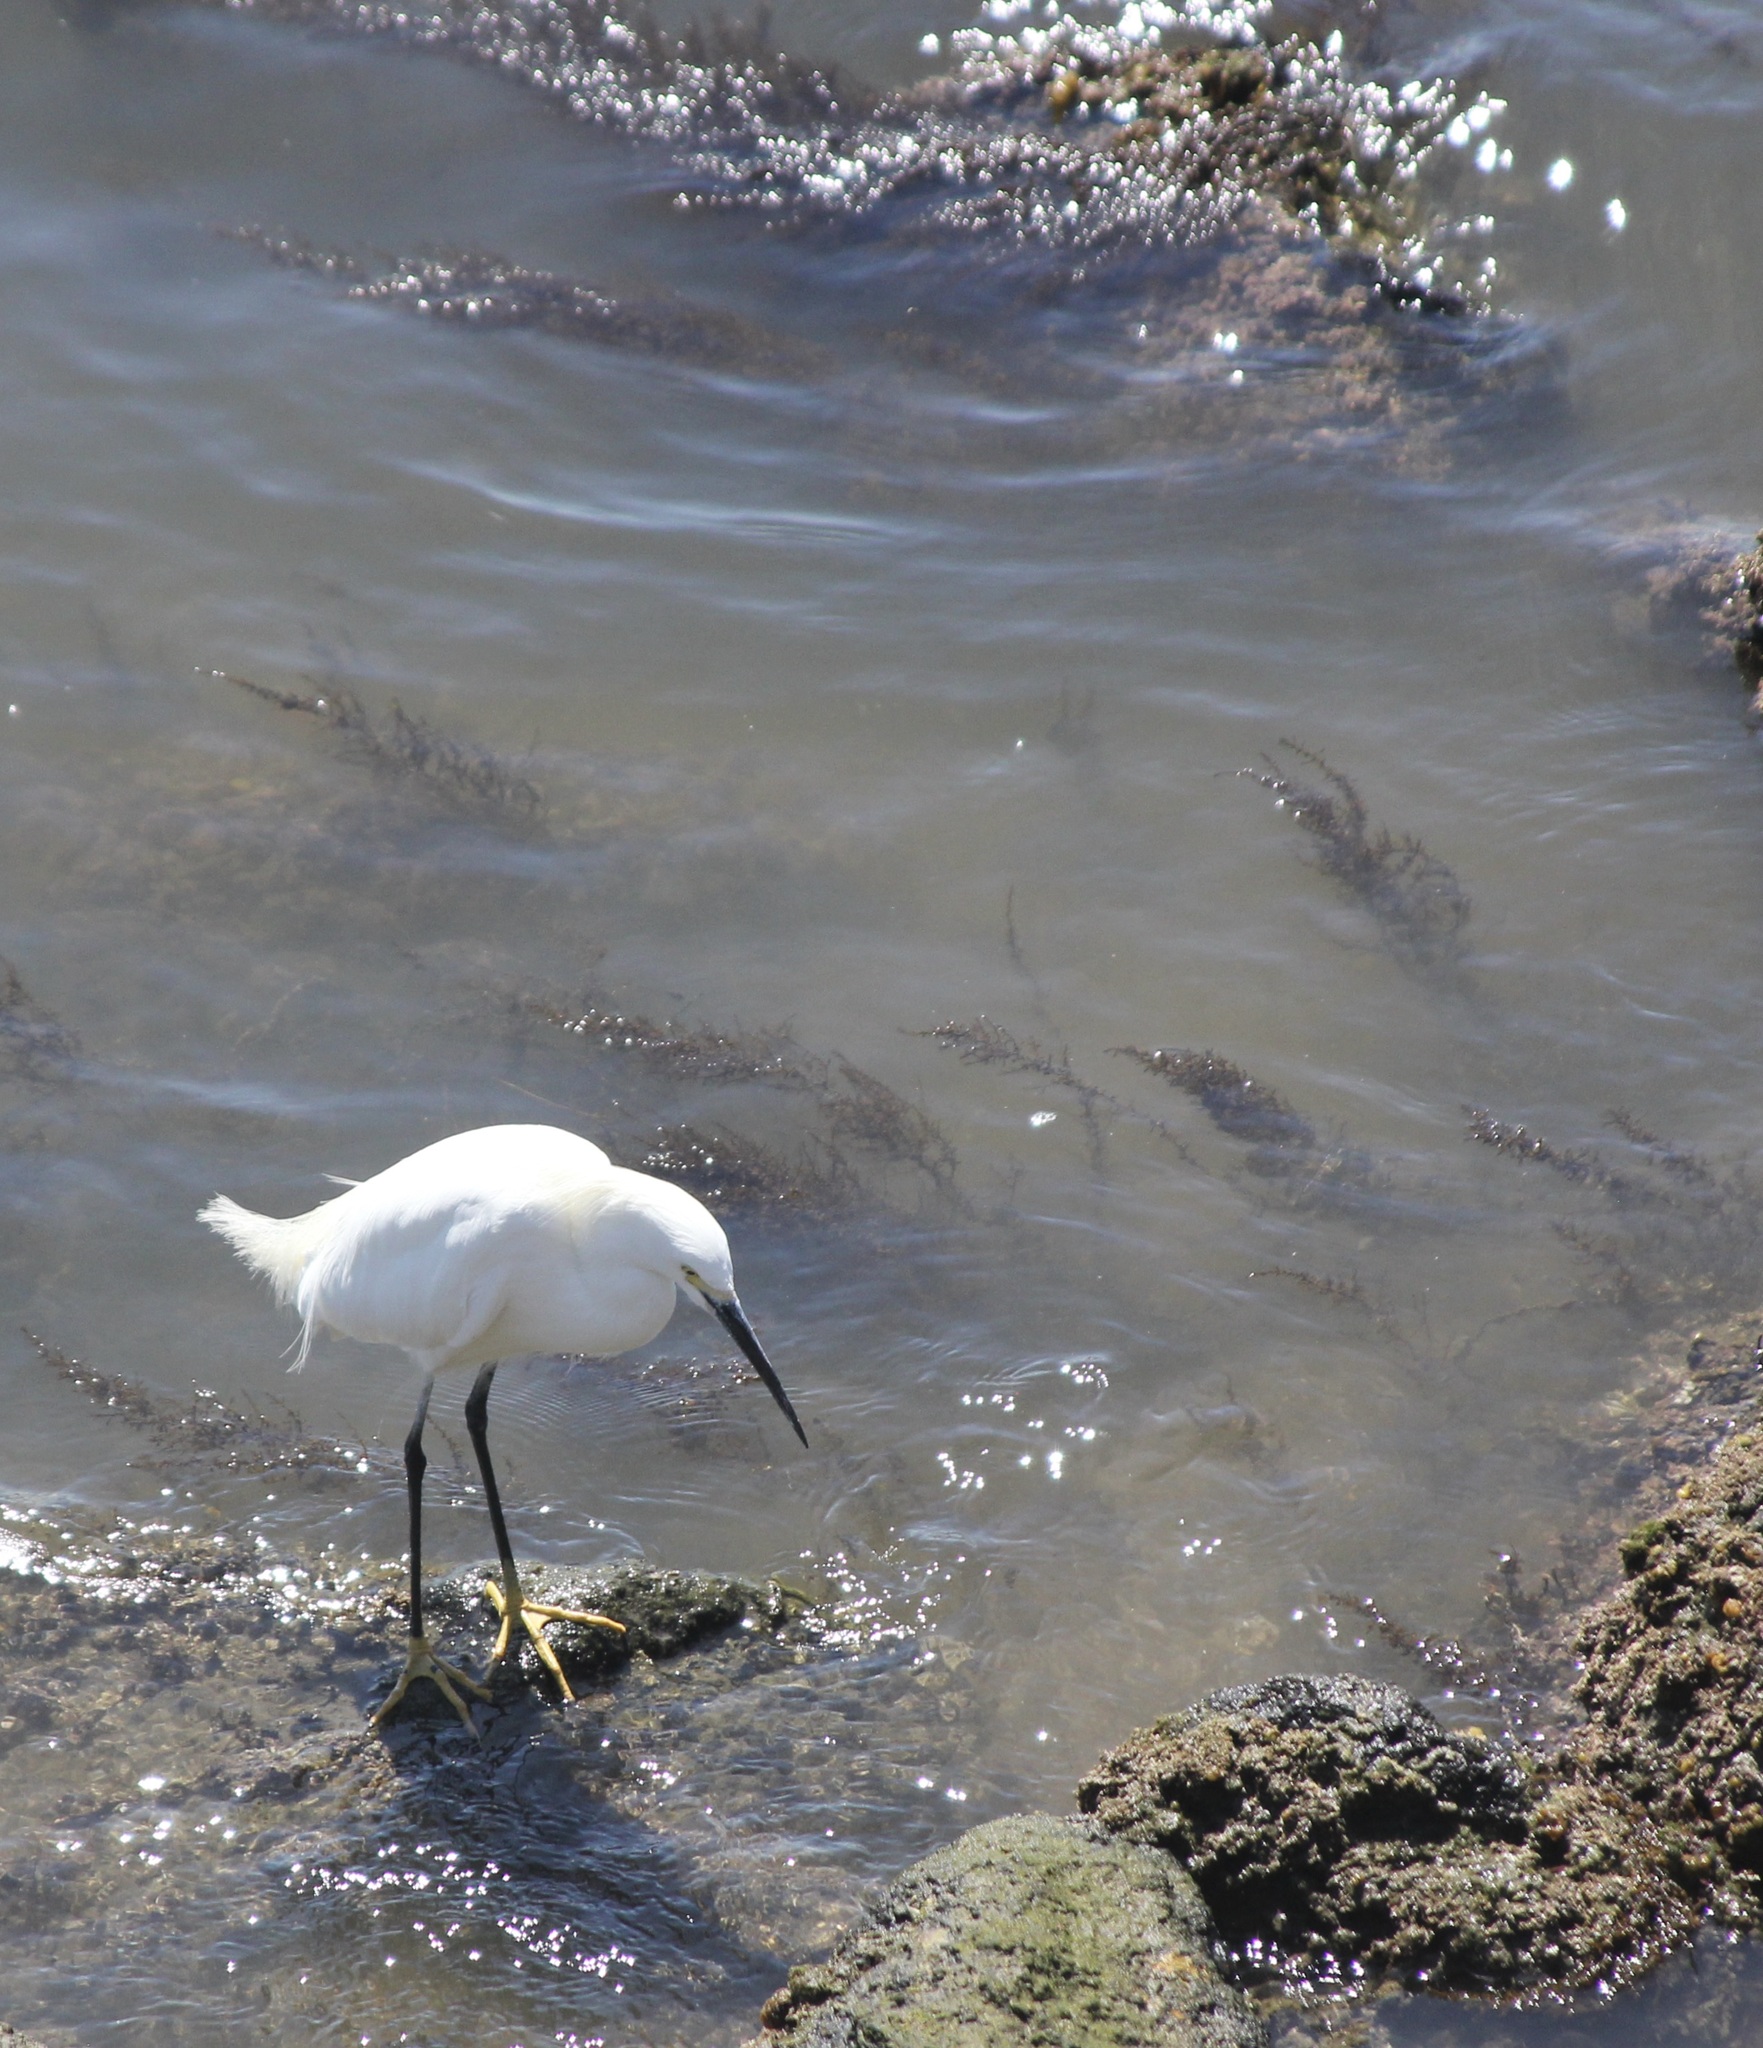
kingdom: Animalia
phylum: Chordata
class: Aves
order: Pelecaniformes
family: Ardeidae
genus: Egretta
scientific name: Egretta thula
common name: Snowy egret
